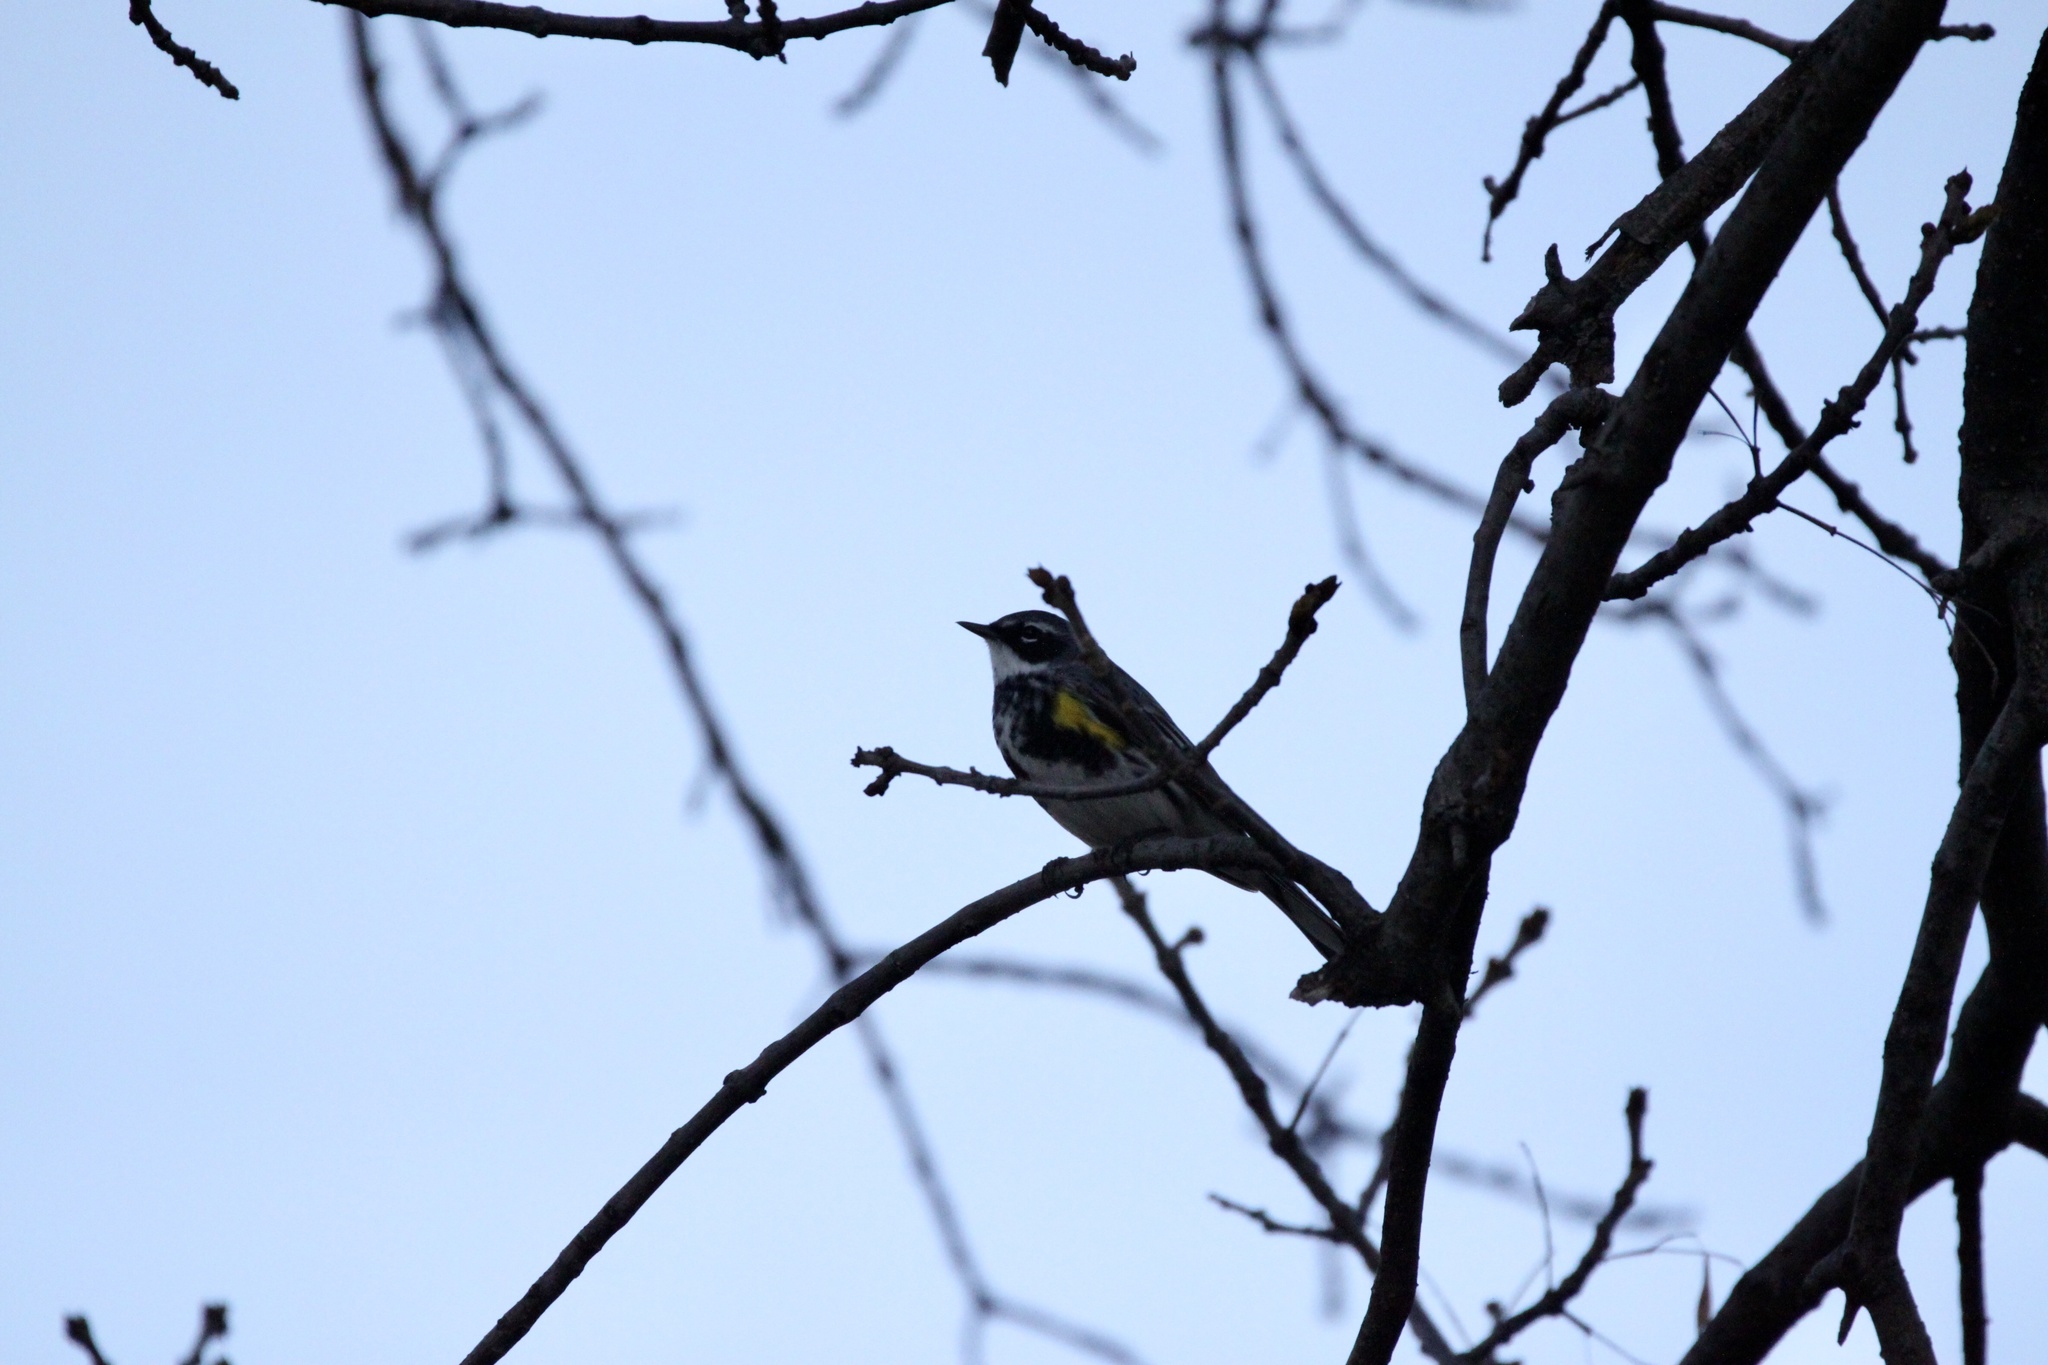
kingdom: Animalia
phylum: Chordata
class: Aves
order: Passeriformes
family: Parulidae
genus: Setophaga
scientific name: Setophaga coronata
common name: Myrtle warbler
